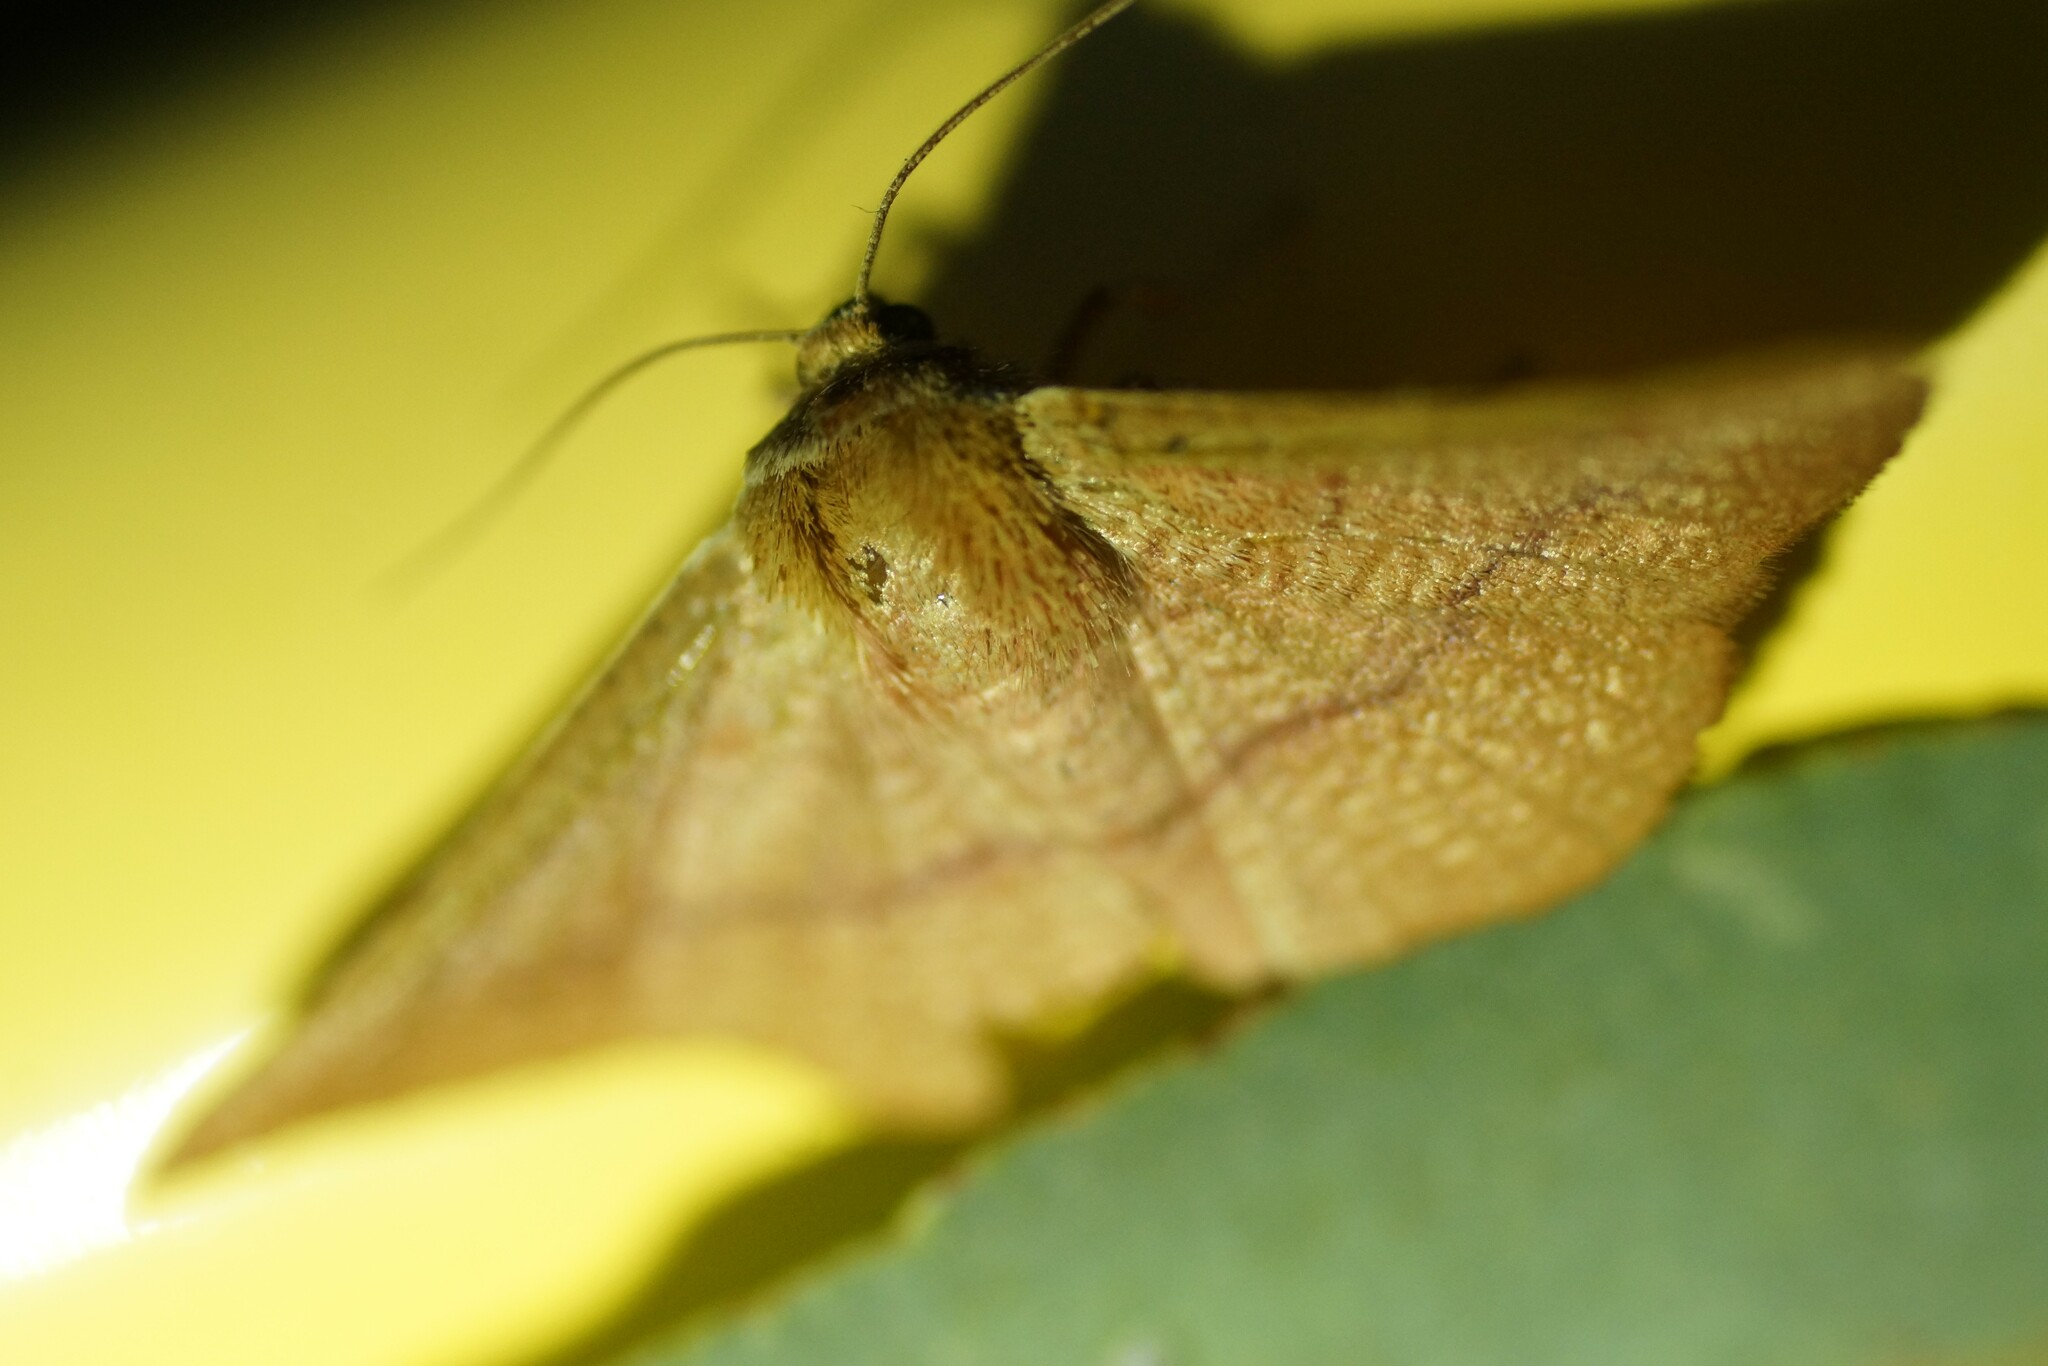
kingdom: Animalia
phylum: Arthropoda
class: Insecta
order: Lepidoptera
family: Thyrididae
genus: Aglaopus
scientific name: Aglaopus pyrrhata
